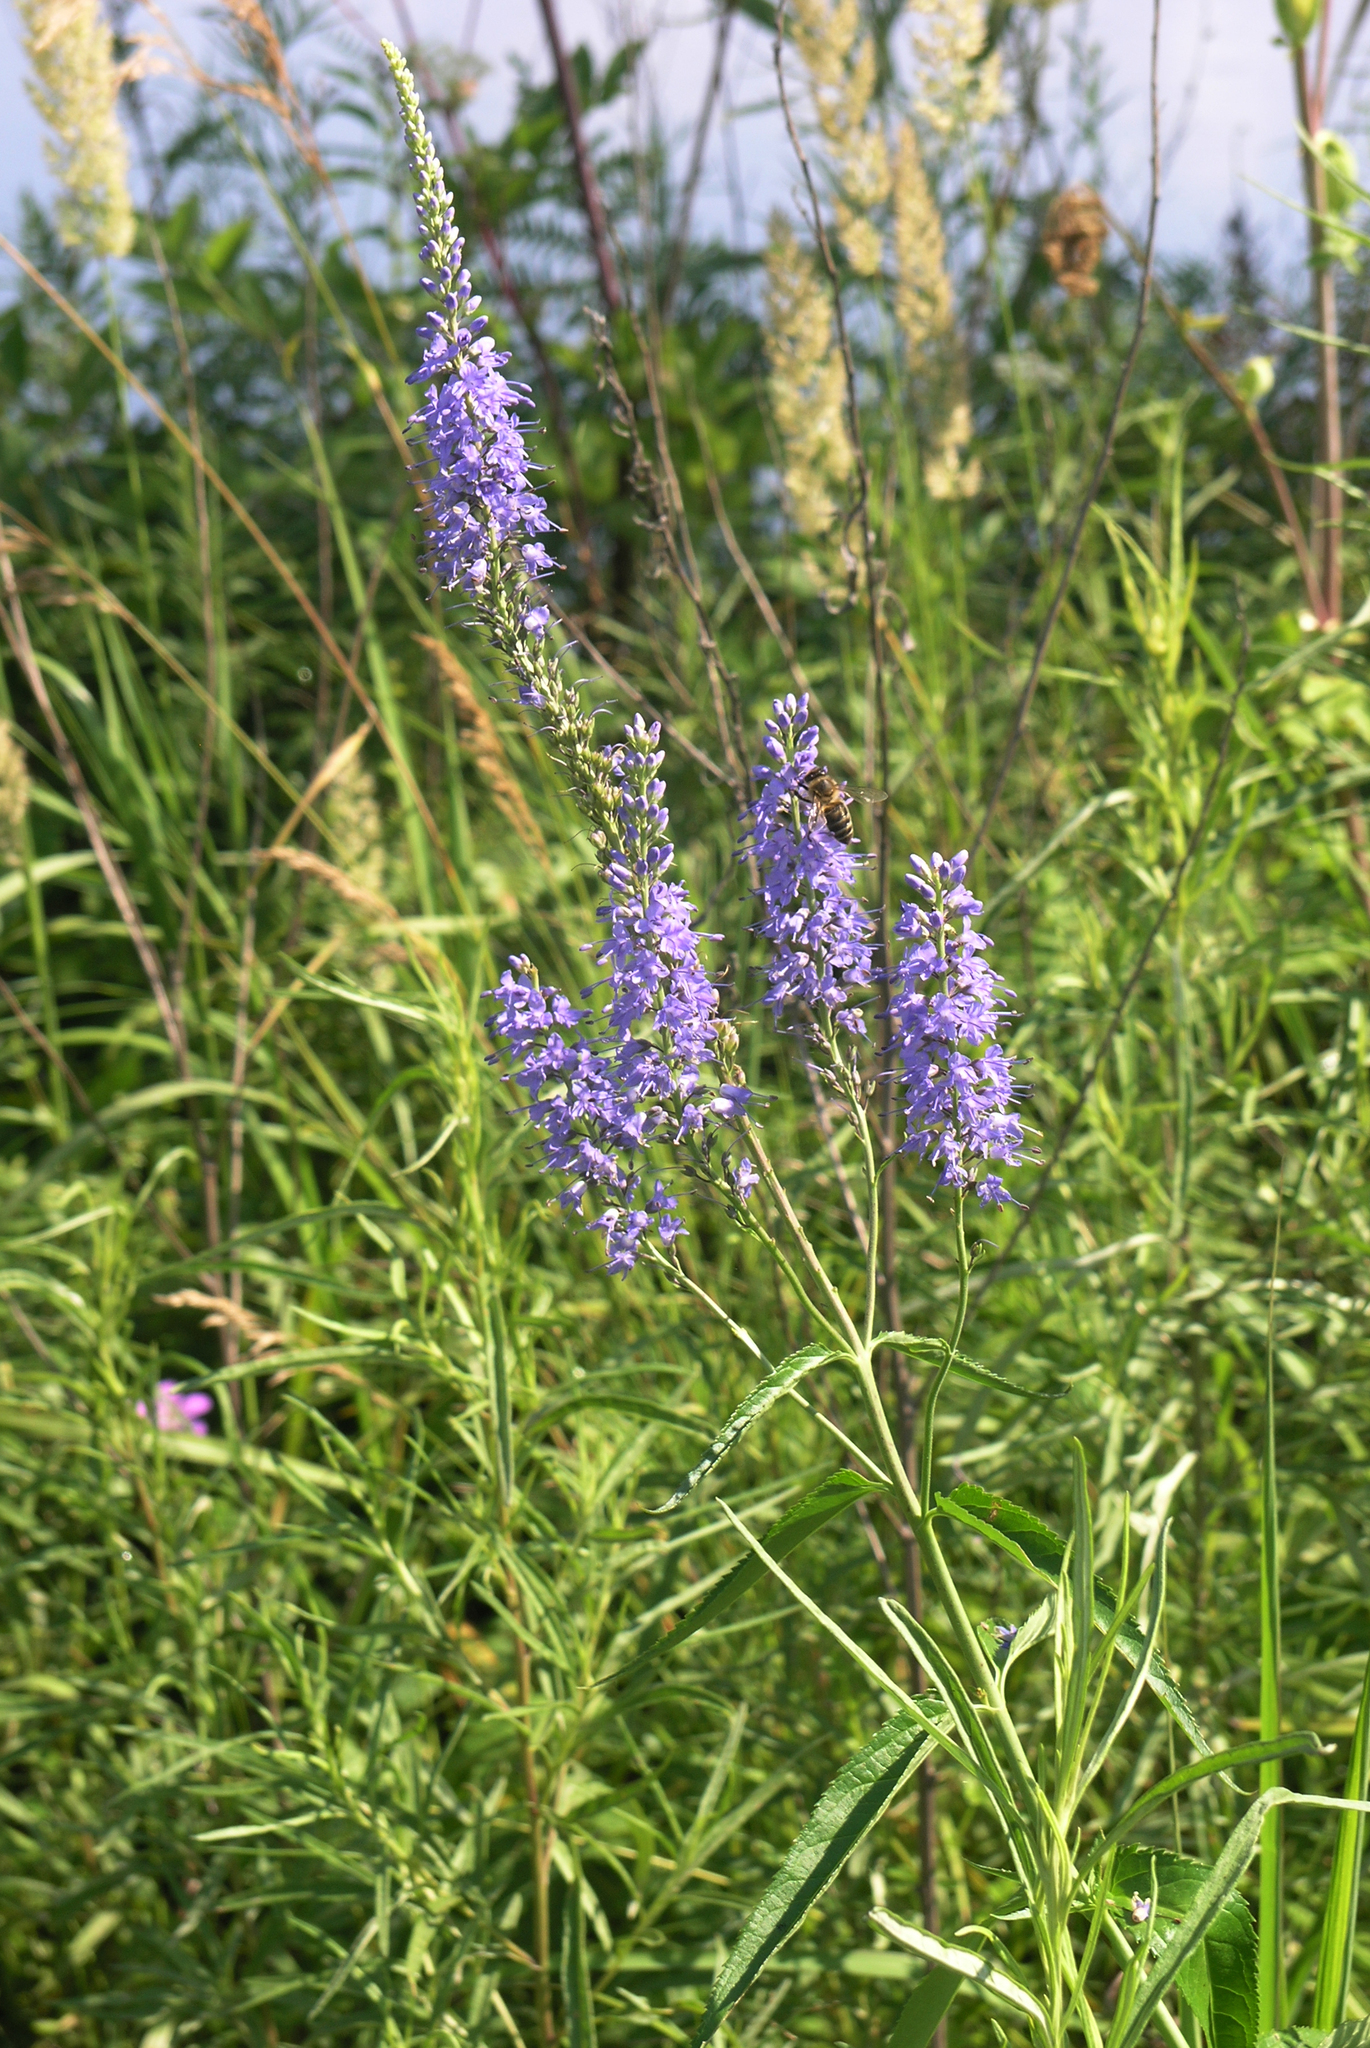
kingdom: Plantae
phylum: Tracheophyta
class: Magnoliopsida
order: Lamiales
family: Plantaginaceae
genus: Veronica
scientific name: Veronica longifolia
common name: Garden speedwell
